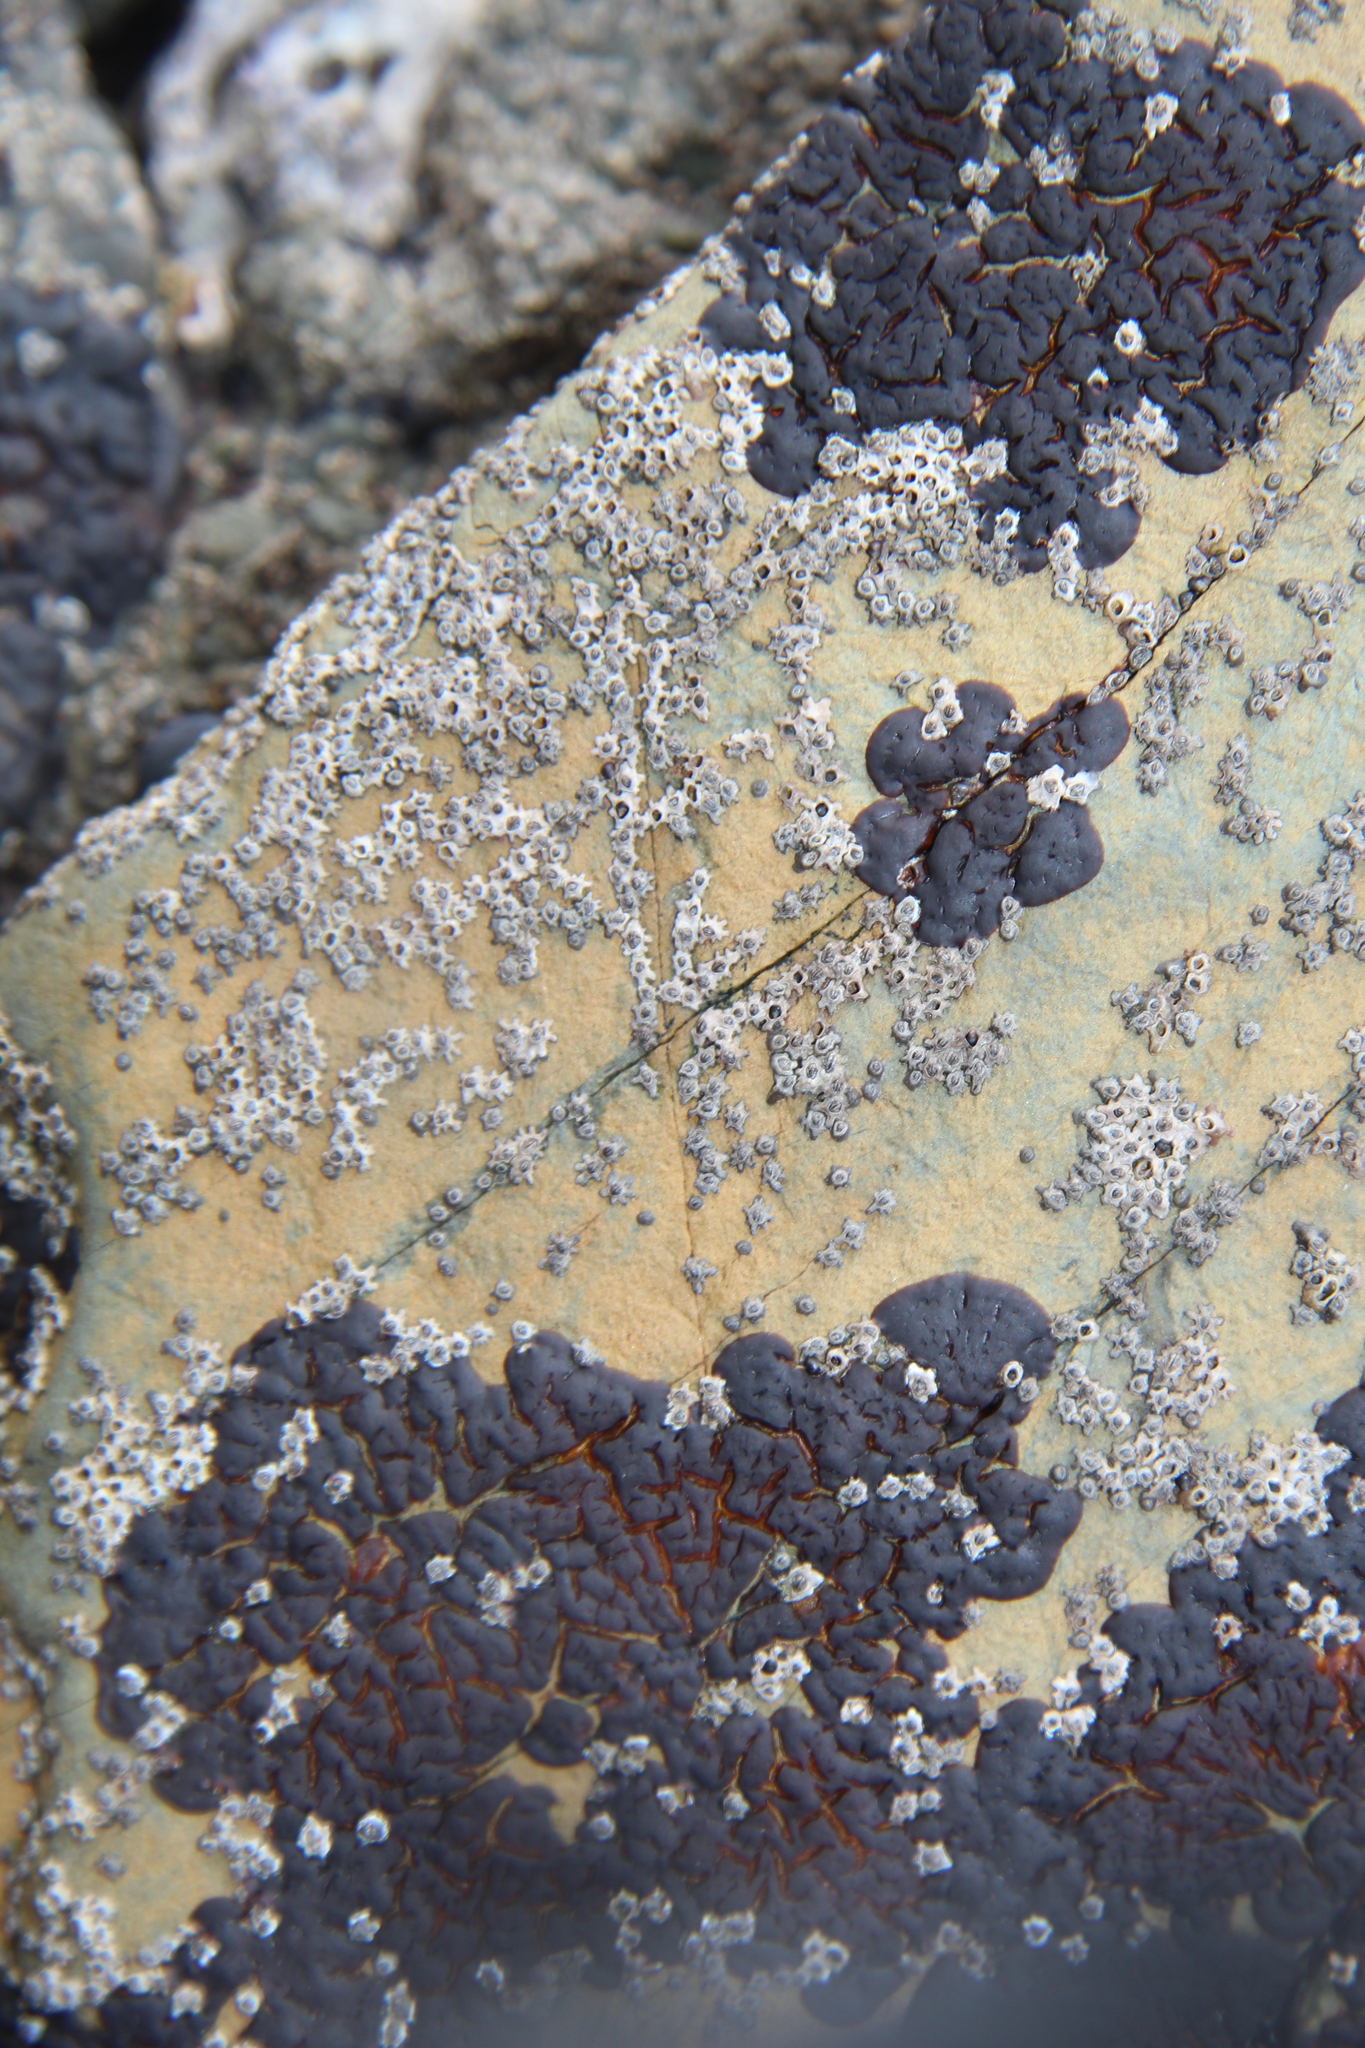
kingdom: Animalia
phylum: Arthropoda
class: Maxillopoda
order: Sessilia
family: Chthamalidae
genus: Chamaesipho
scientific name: Chamaesipho columna
